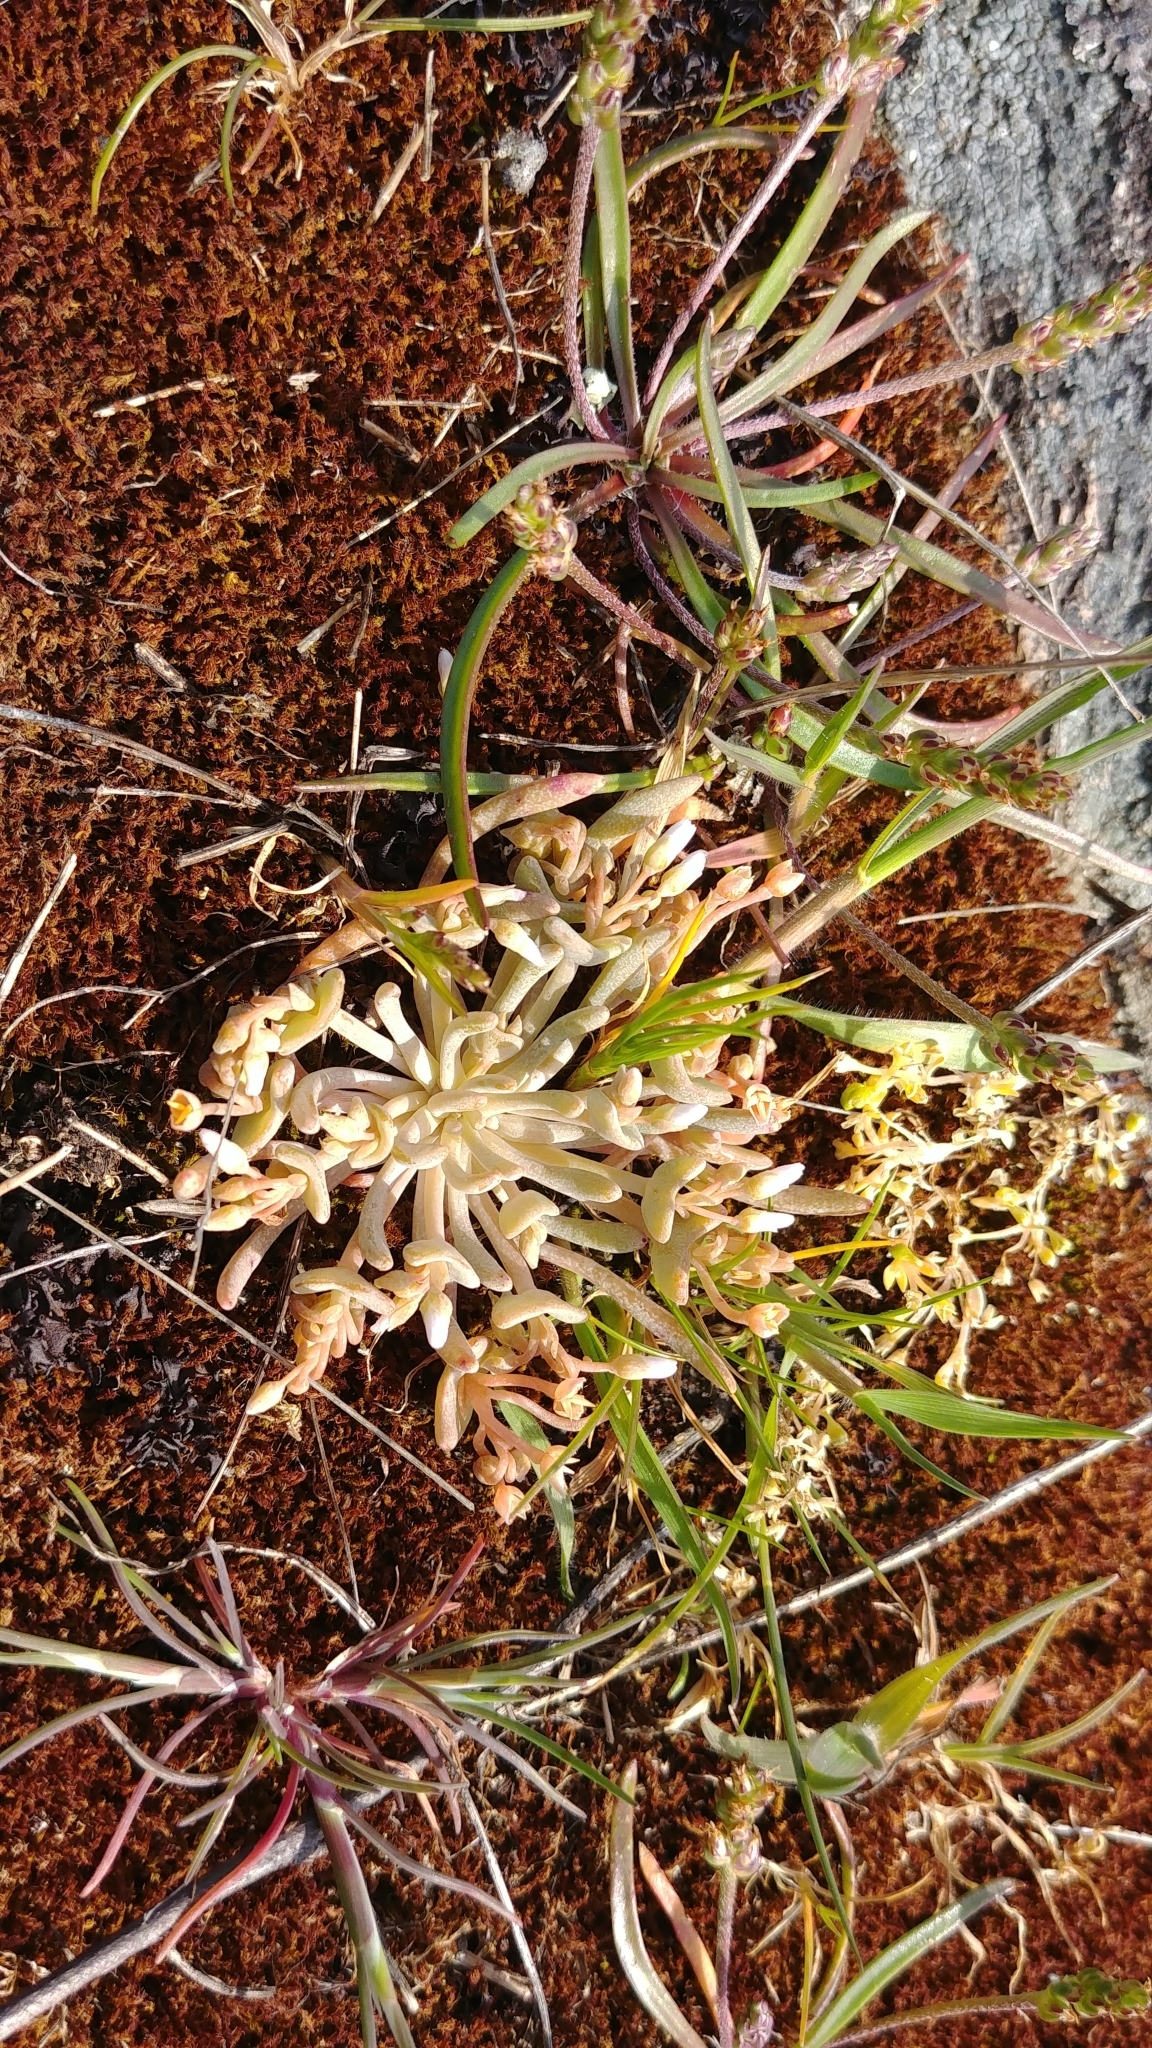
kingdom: Plantae
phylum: Tracheophyta
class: Magnoliopsida
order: Caryophyllales
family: Montiaceae
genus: Claytonia
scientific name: Claytonia exigua
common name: Pale spring beauty
